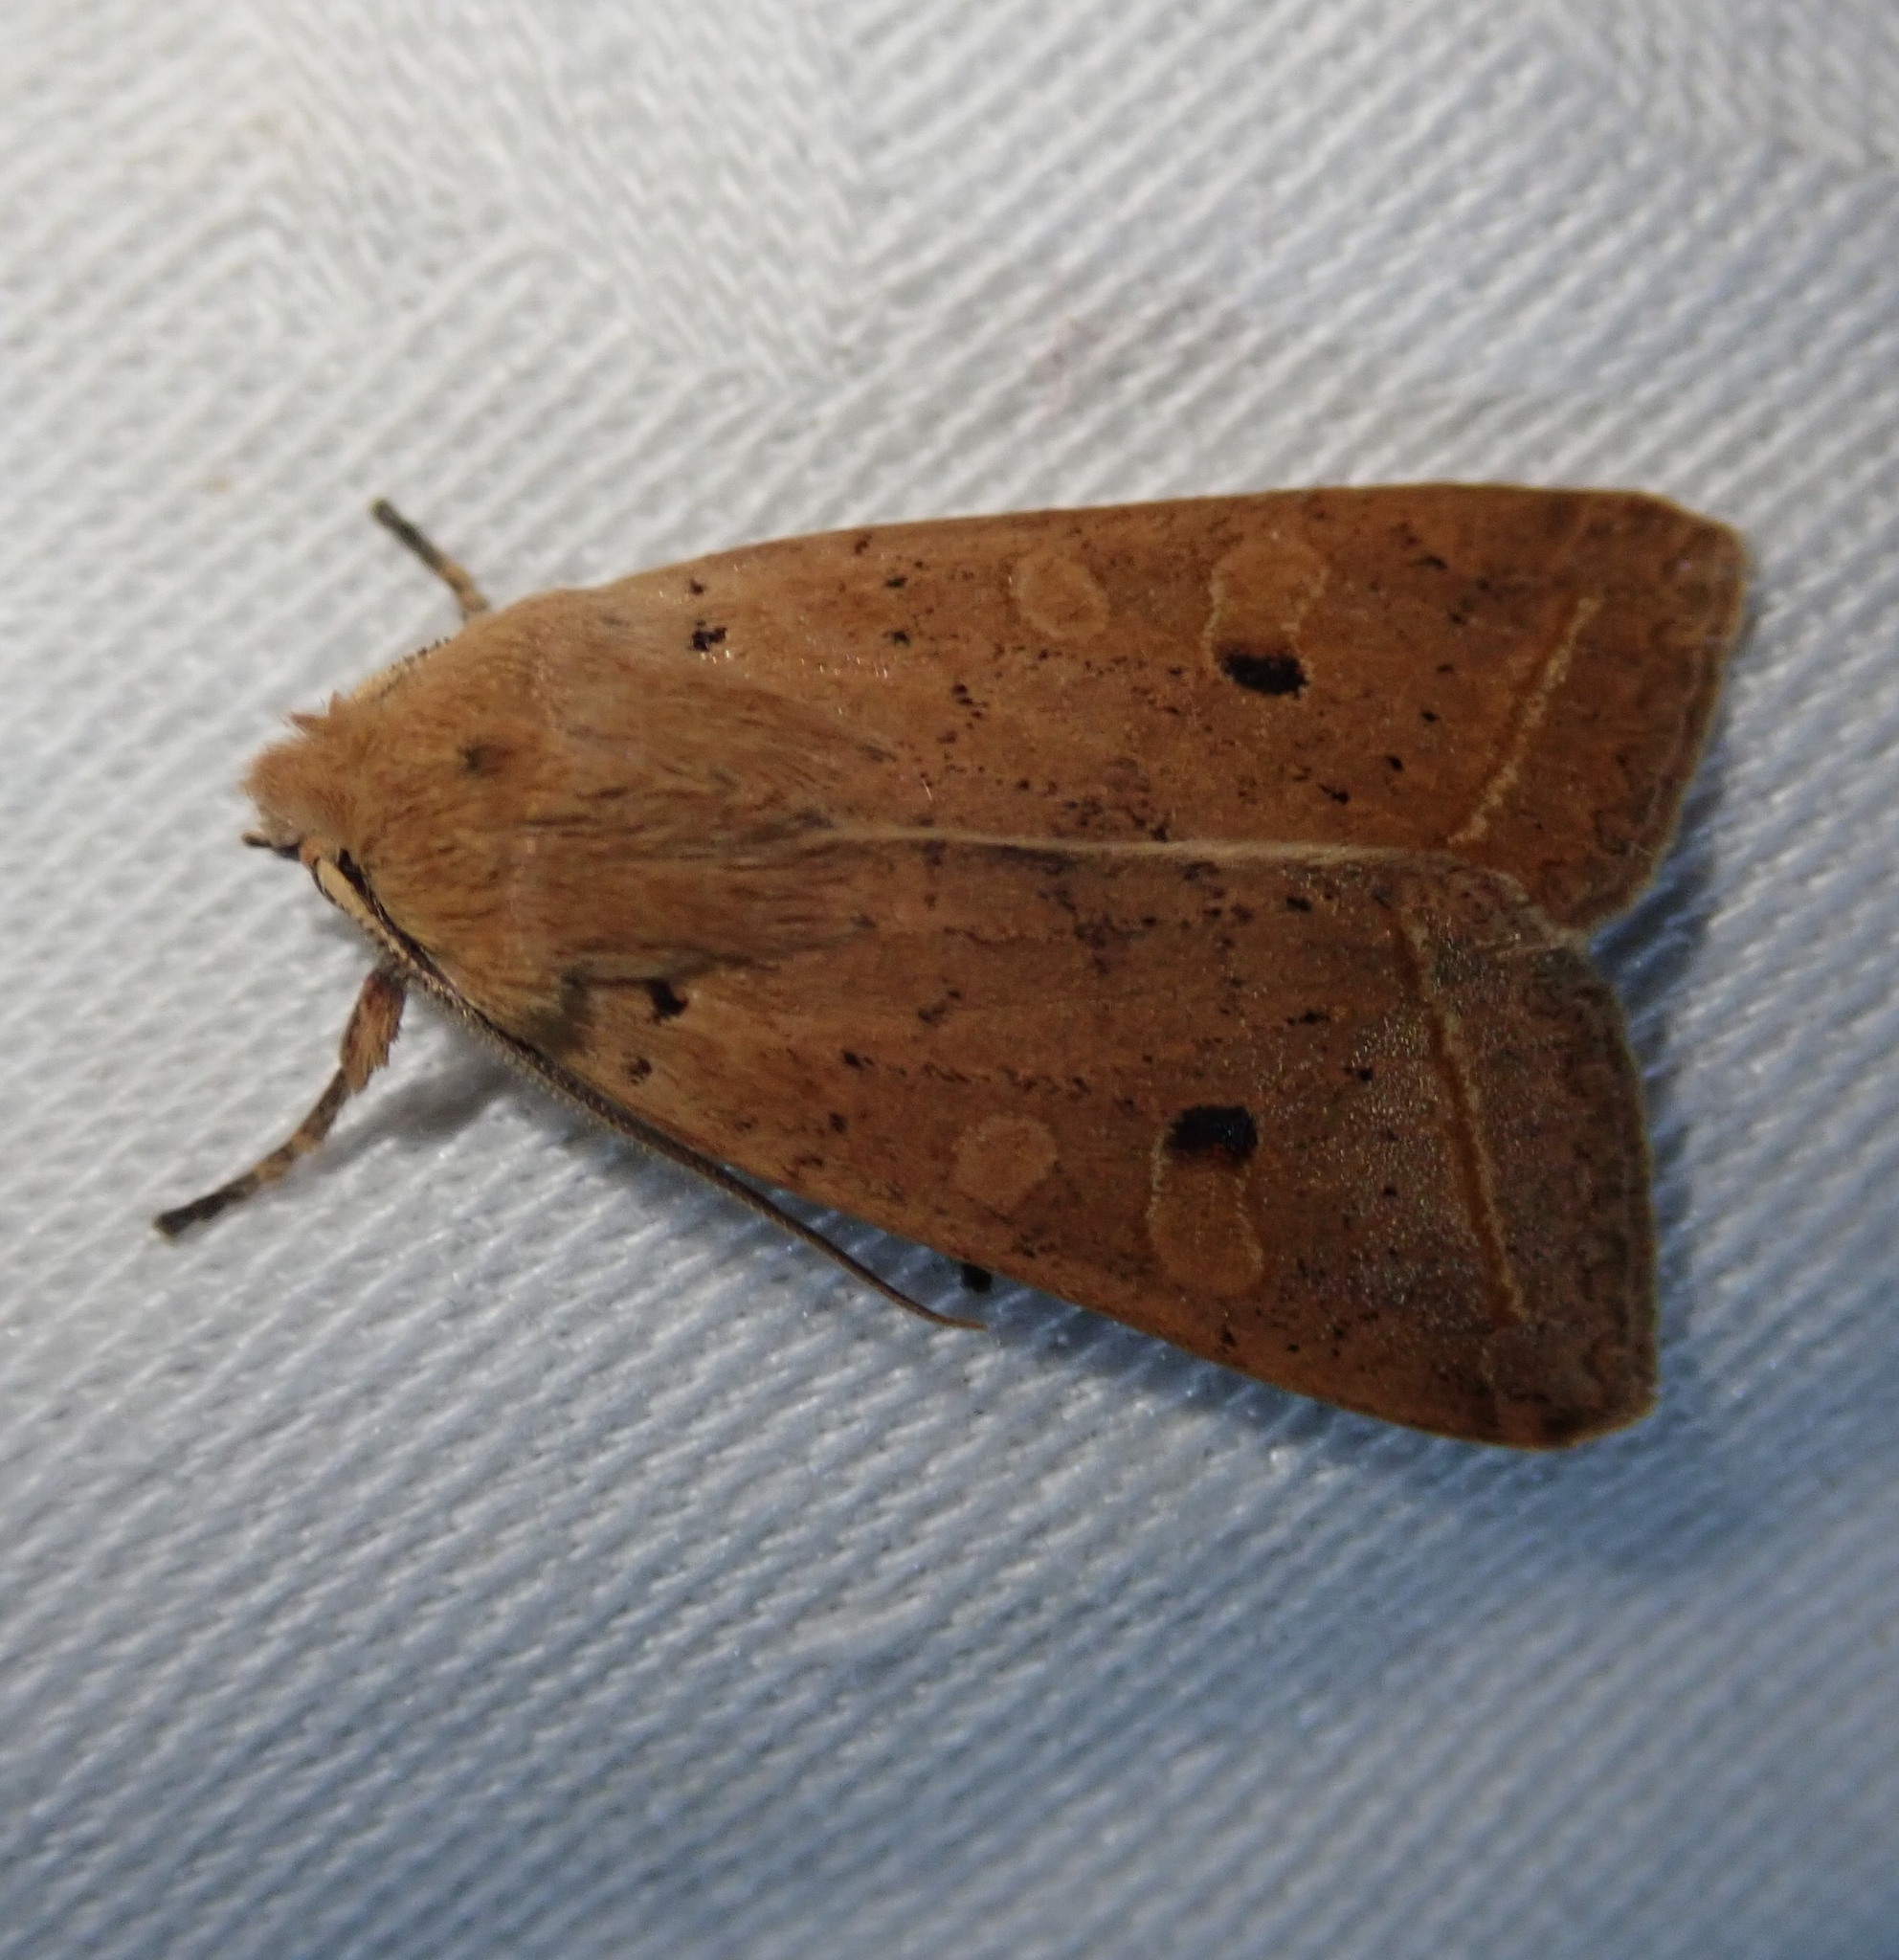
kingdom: Animalia
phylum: Arthropoda
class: Insecta
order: Lepidoptera
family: Noctuidae
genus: Agrochola
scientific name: Agrochola macilenta
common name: Yellow-line quaker
